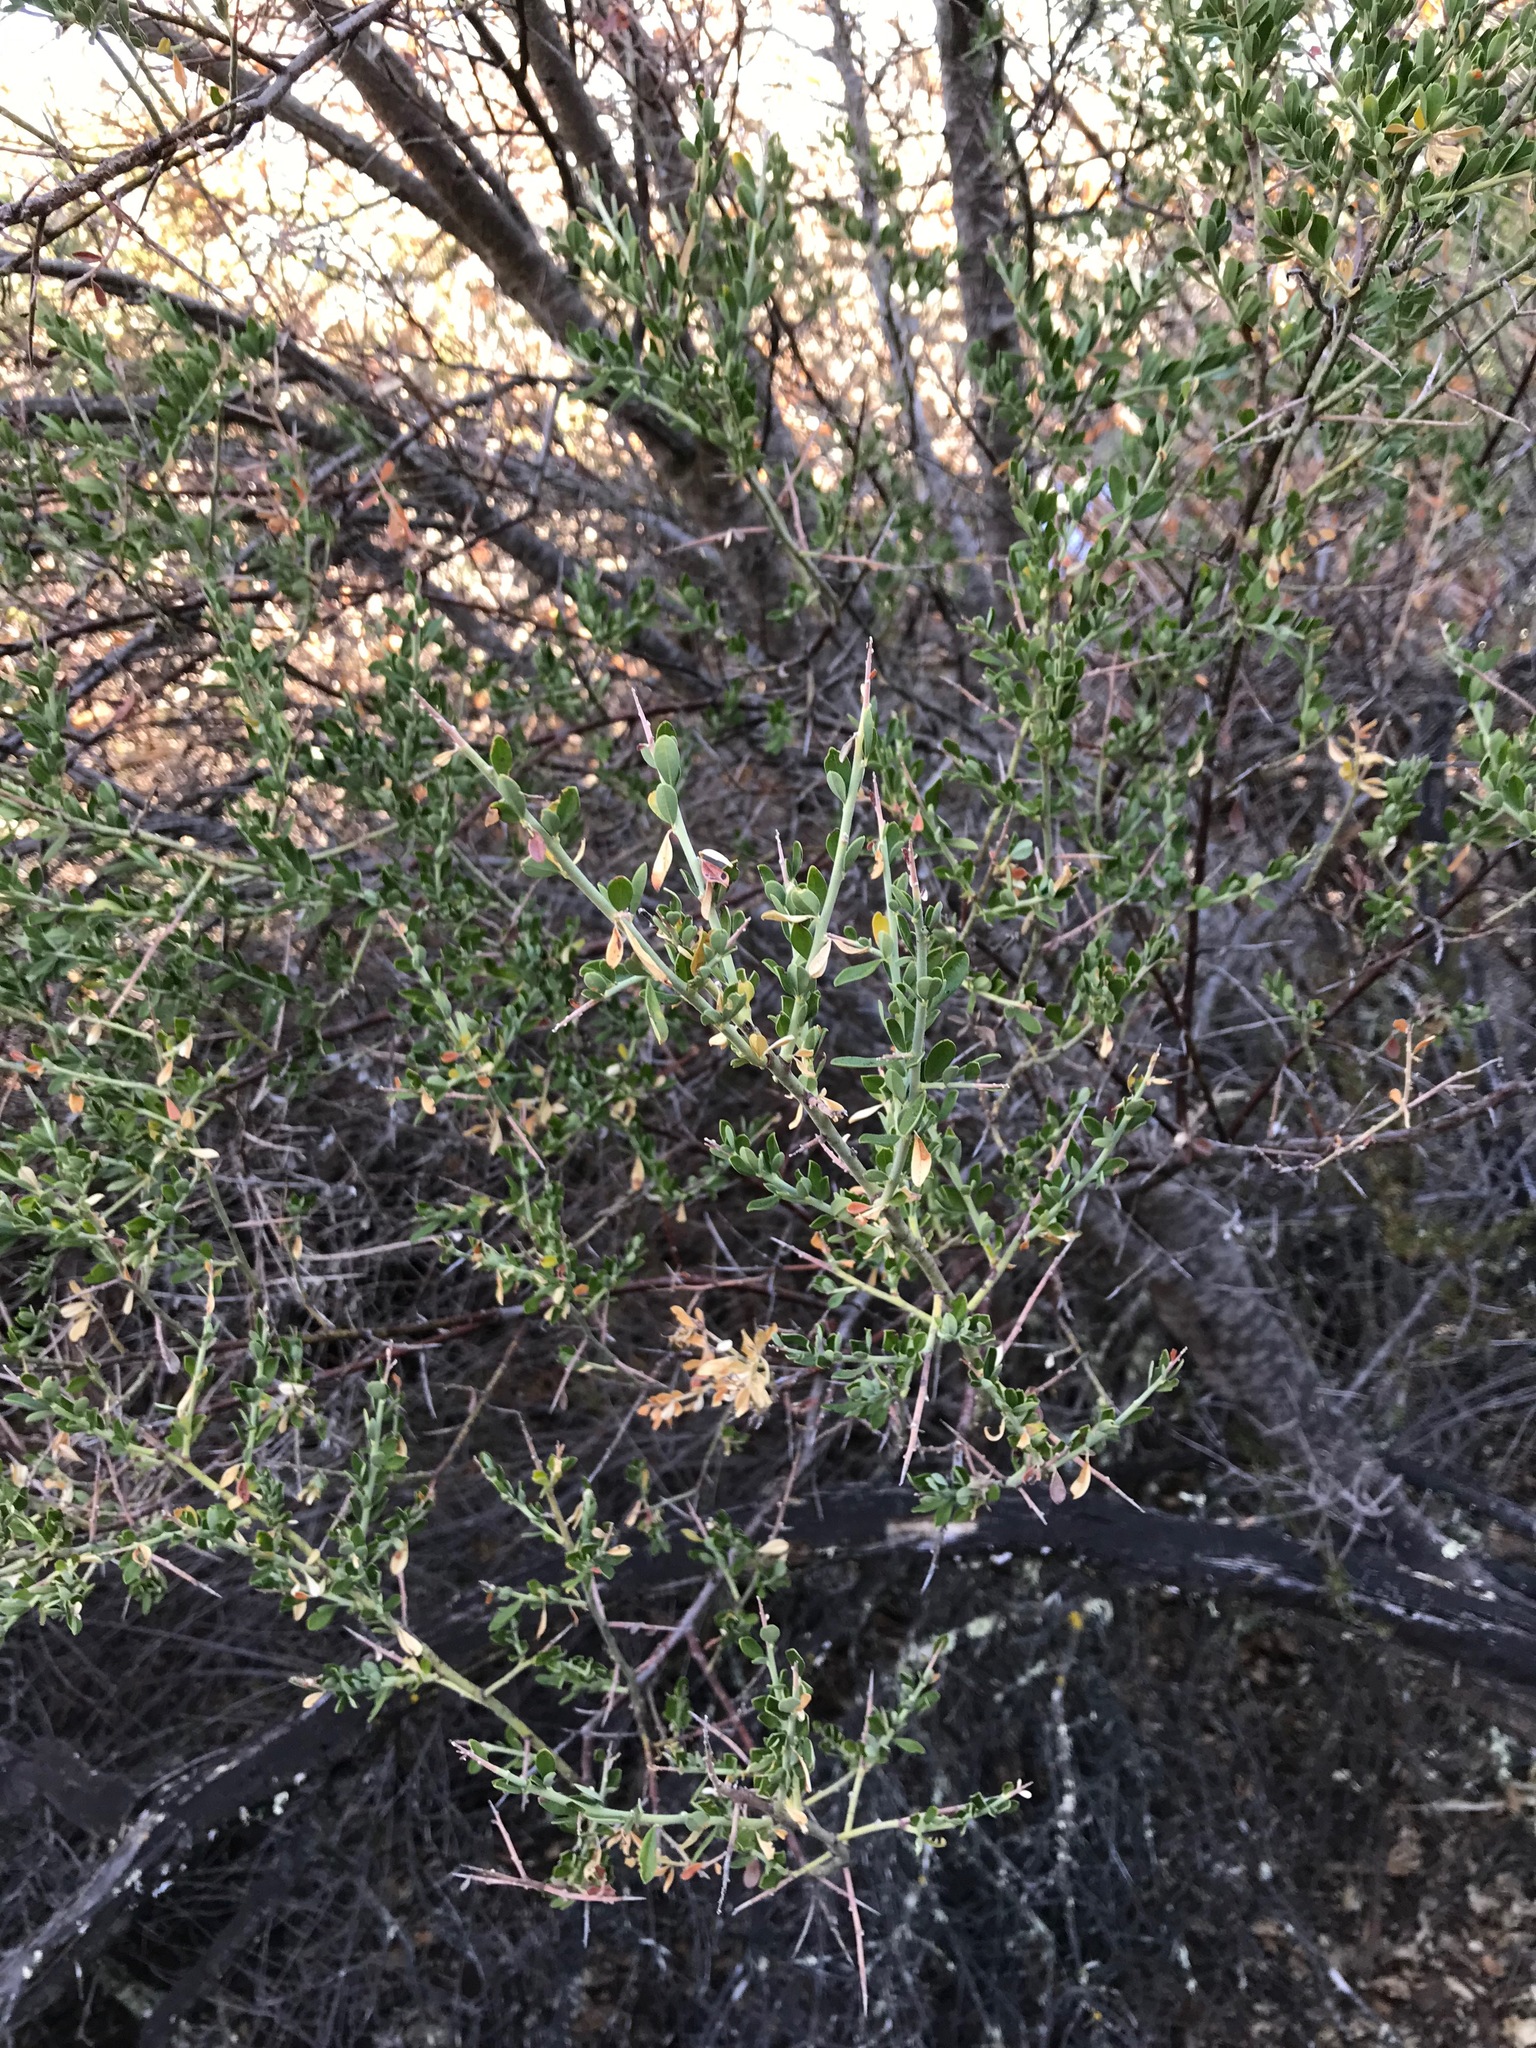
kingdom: Plantae
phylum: Tracheophyta
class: Magnoliopsida
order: Fabales
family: Fabaceae
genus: Pickeringia
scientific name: Pickeringia montana
